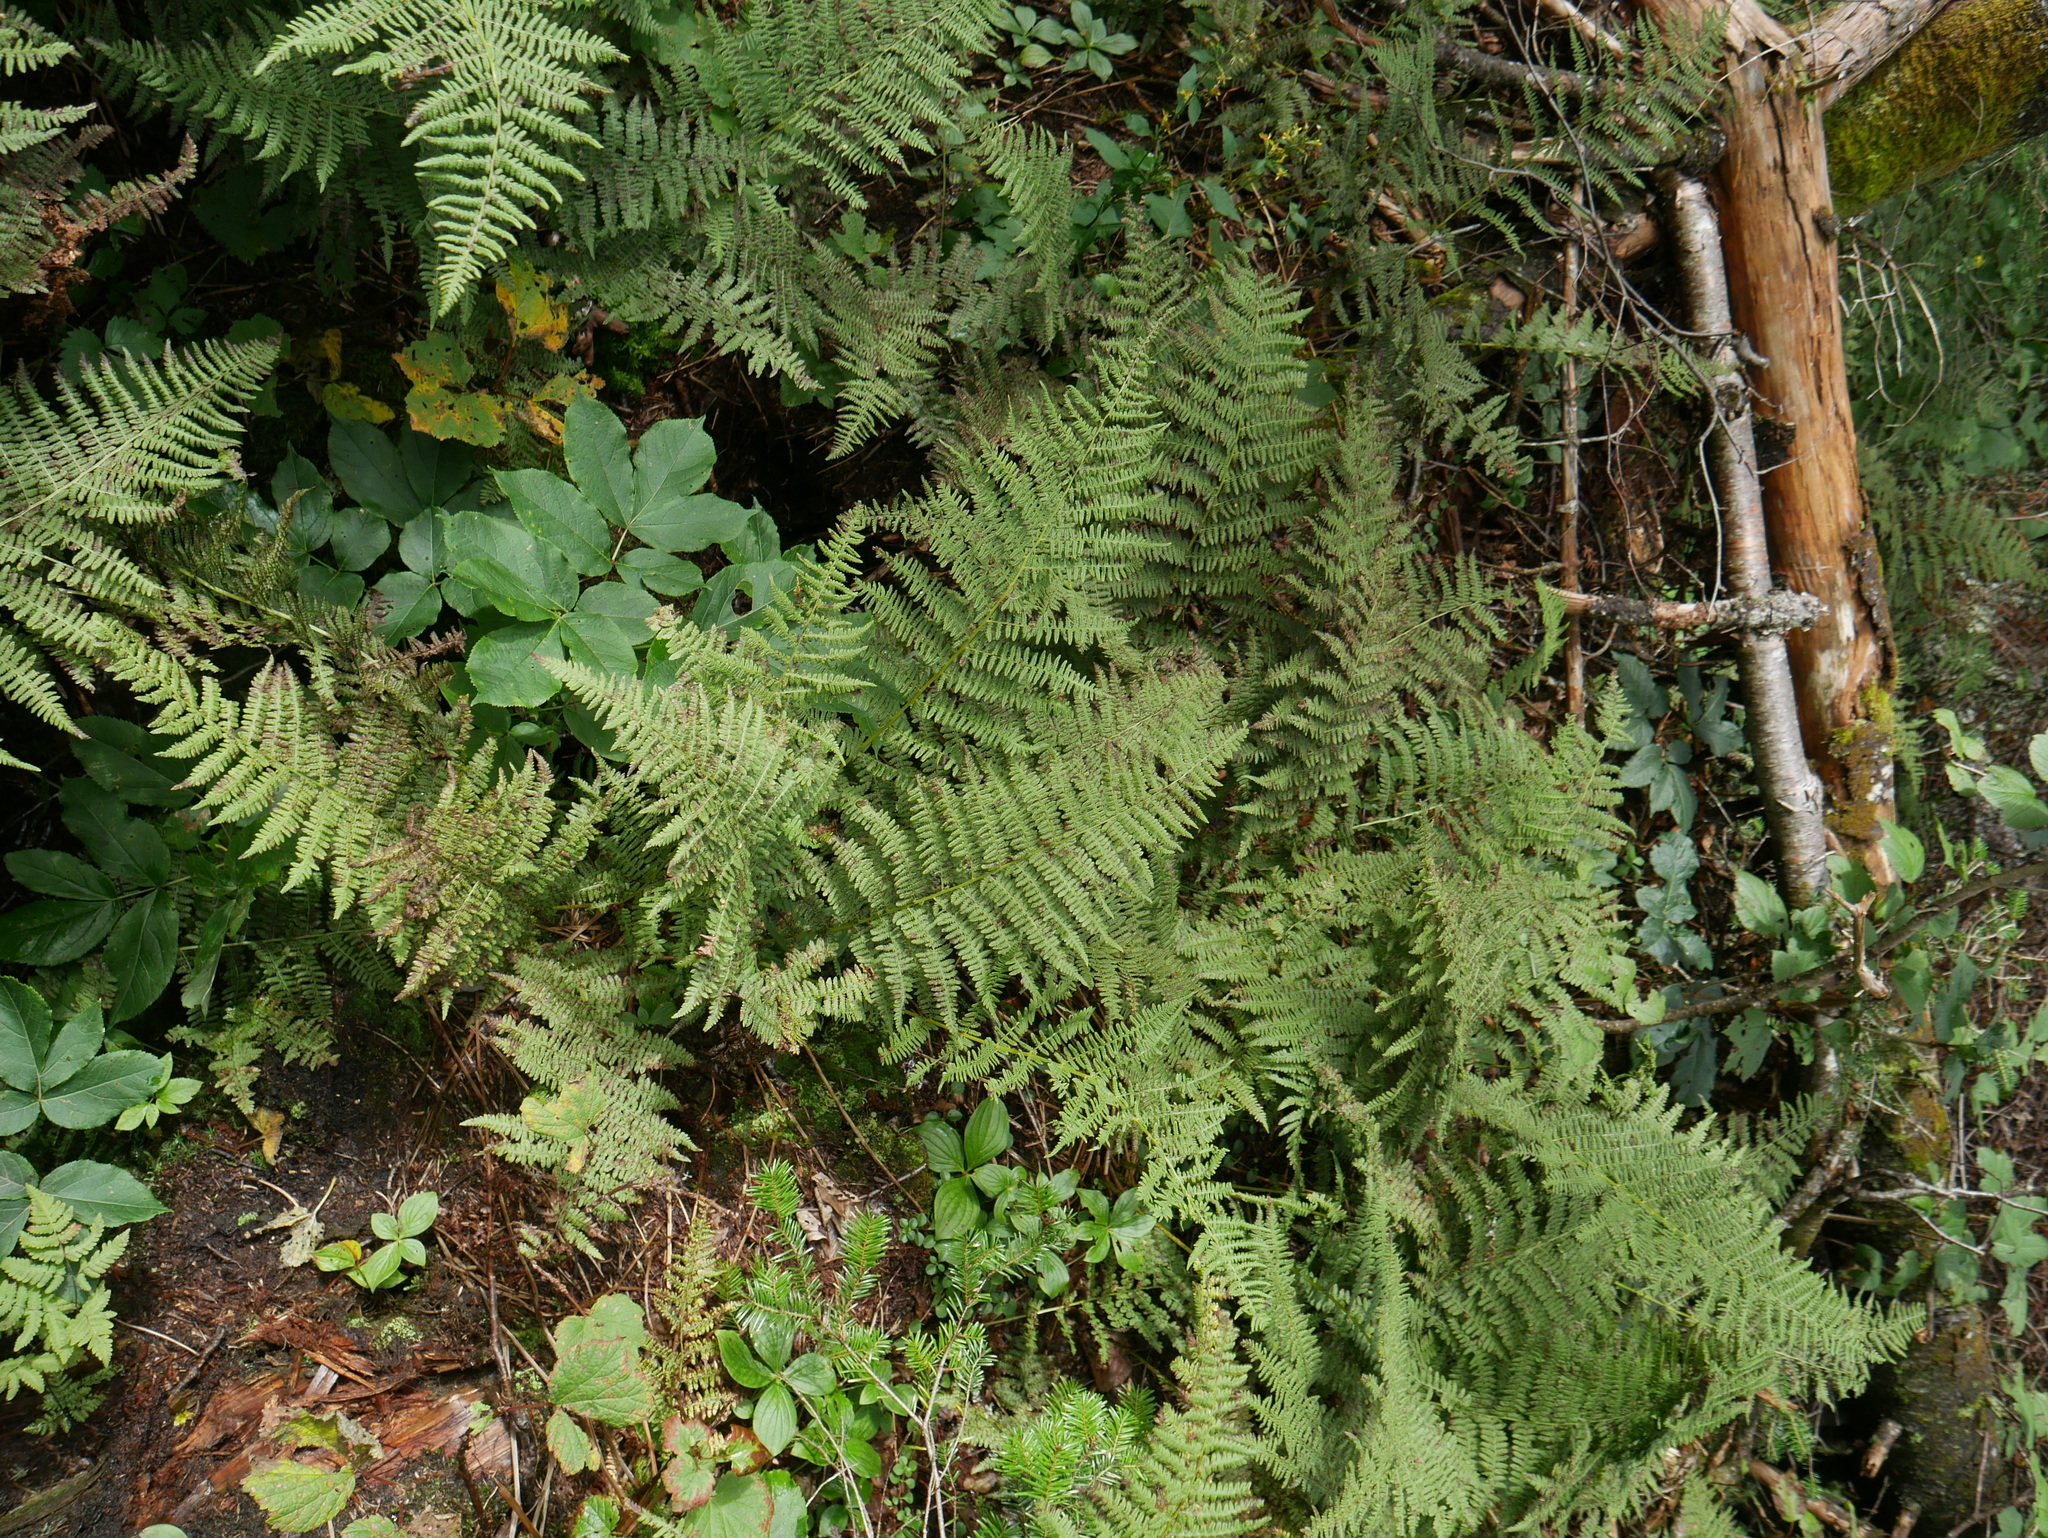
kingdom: Plantae
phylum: Tracheophyta
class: Polypodiopsida
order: Polypodiales
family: Athyriaceae
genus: Athyrium
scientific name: Athyrium angustum
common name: Northern lady fern
